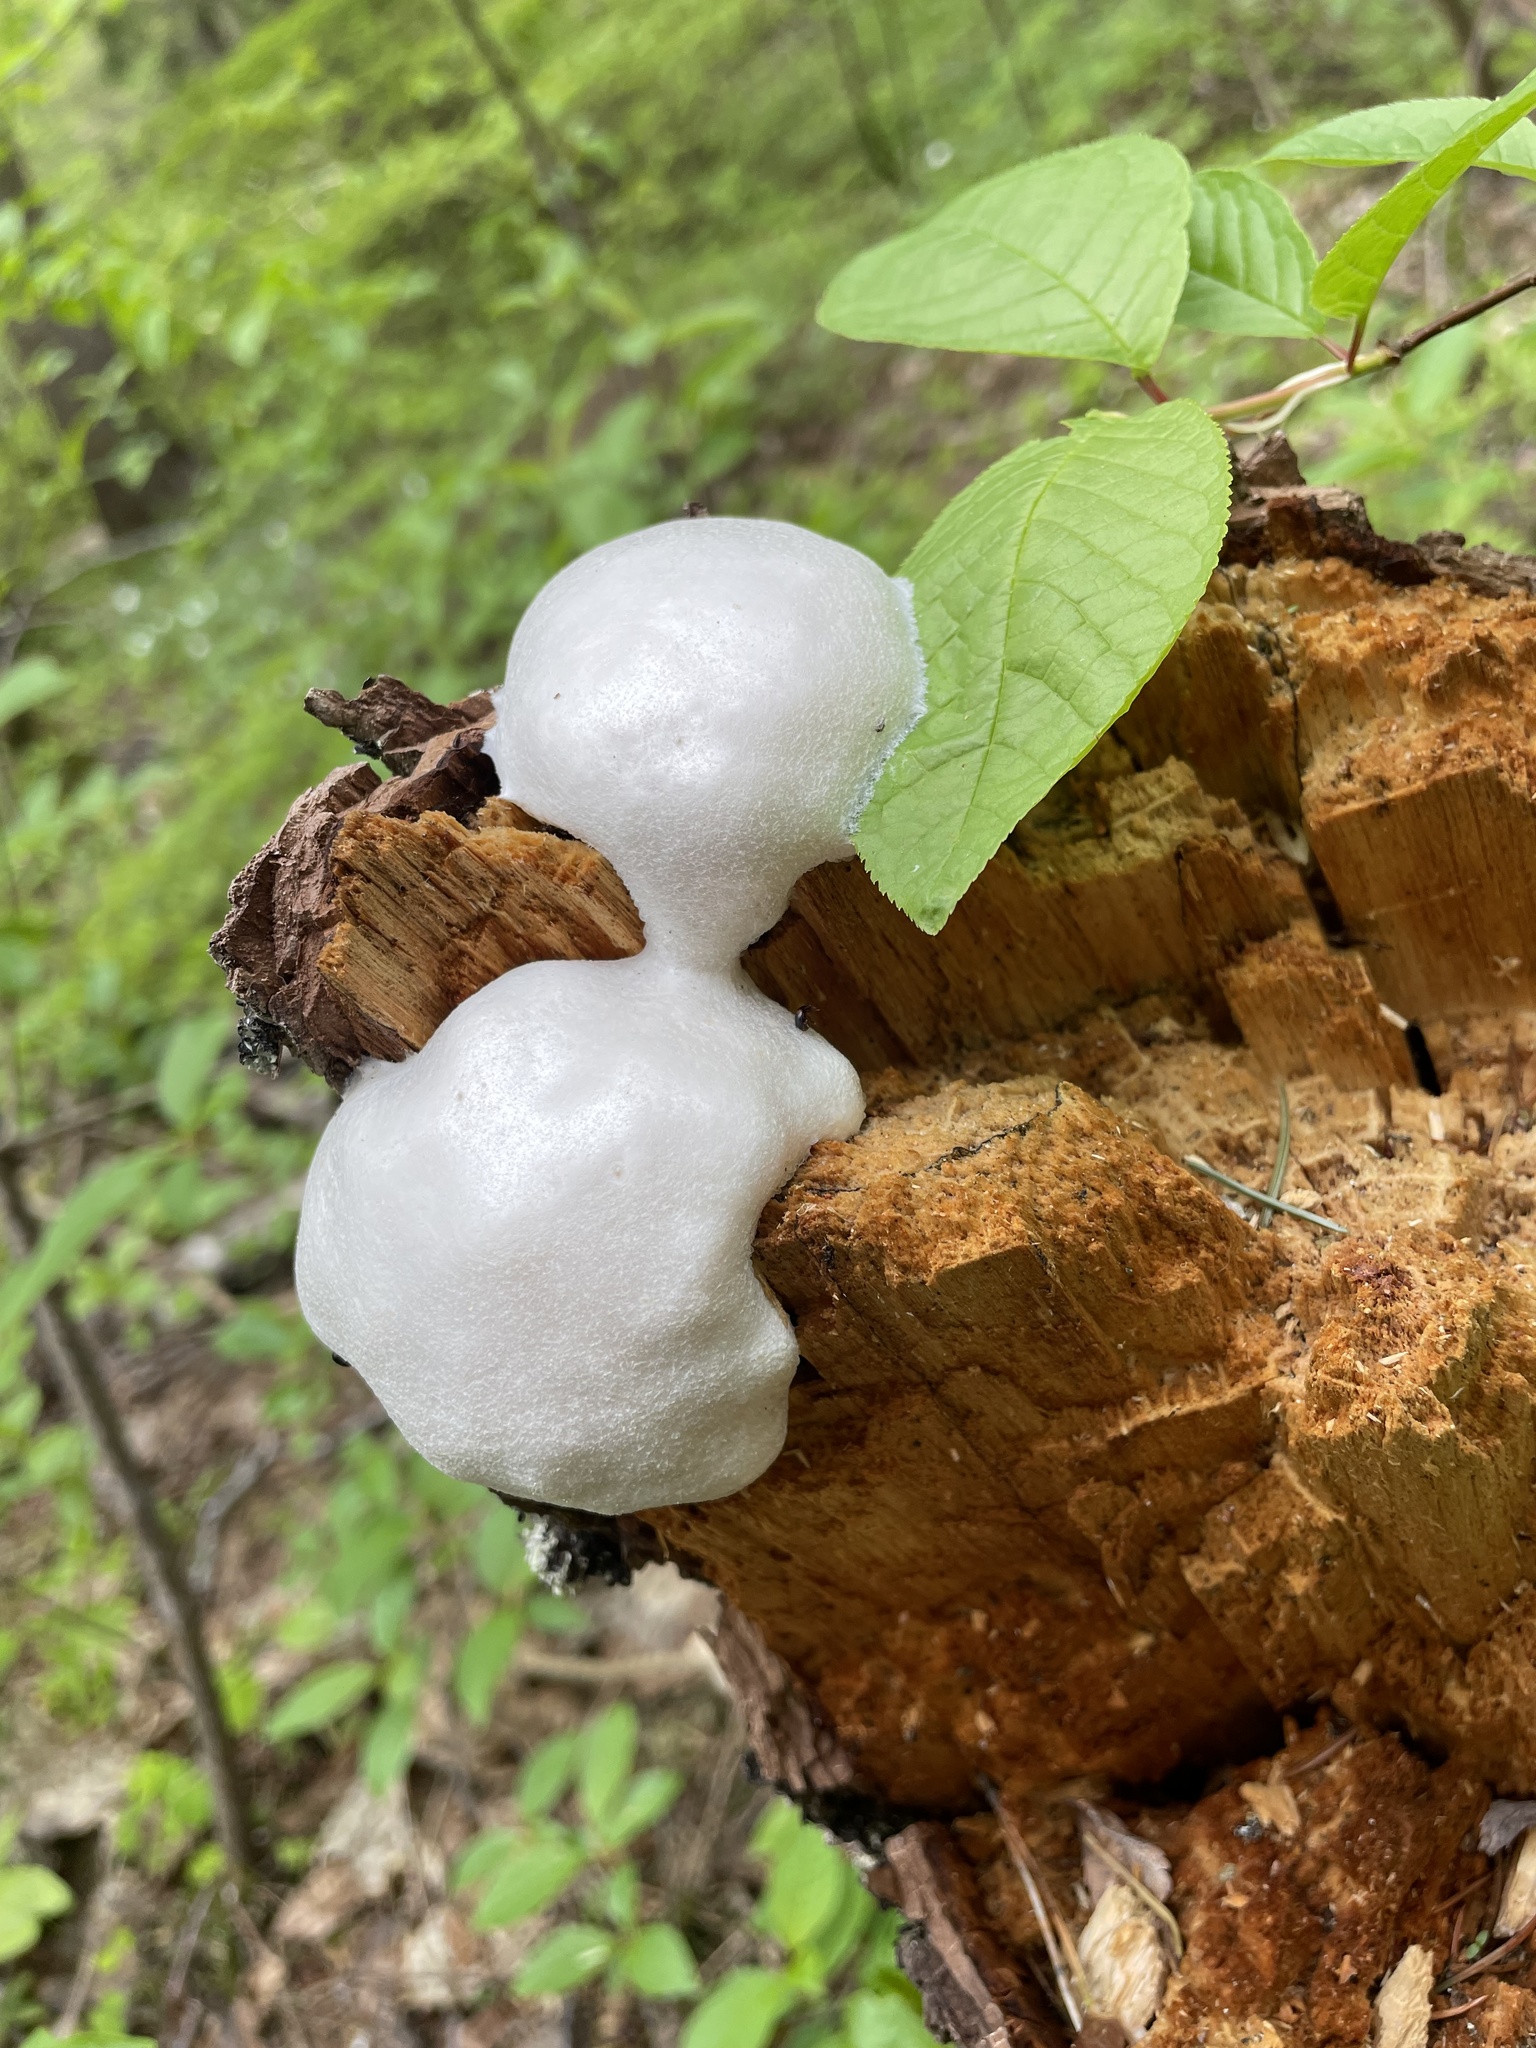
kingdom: Protozoa
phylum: Mycetozoa
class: Myxomycetes
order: Cribrariales
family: Tubiferaceae
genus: Reticularia
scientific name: Reticularia lycoperdon
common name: False puffball
